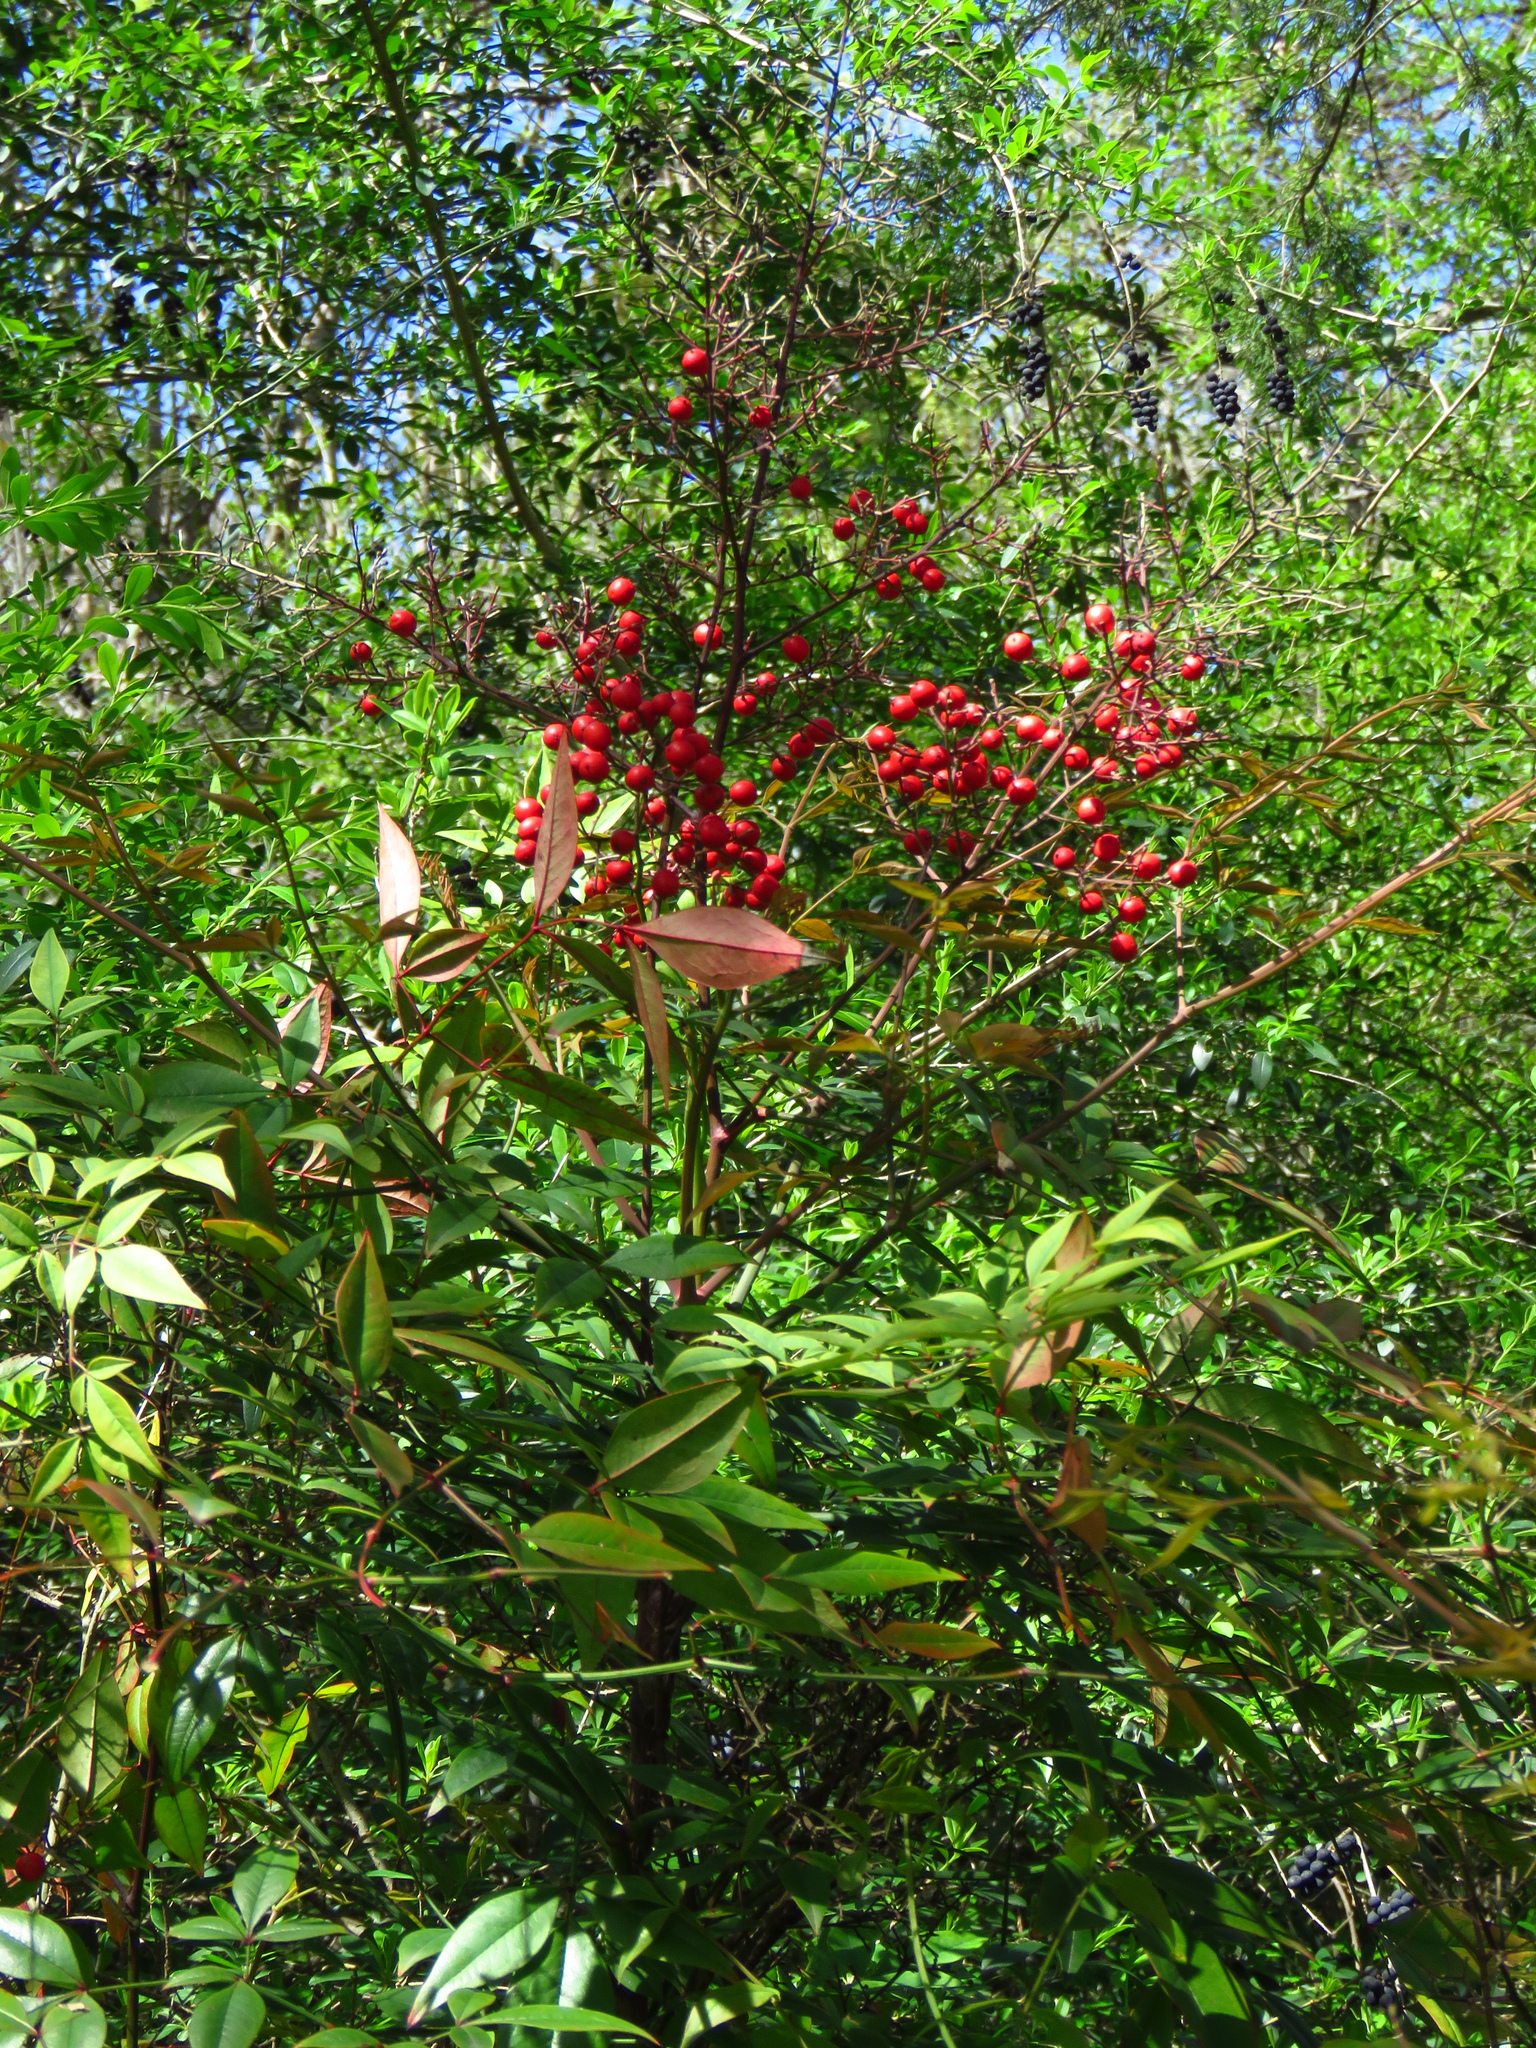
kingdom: Plantae
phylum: Tracheophyta
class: Magnoliopsida
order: Ranunculales
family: Berberidaceae
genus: Nandina
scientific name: Nandina domestica
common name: Sacred bamboo
